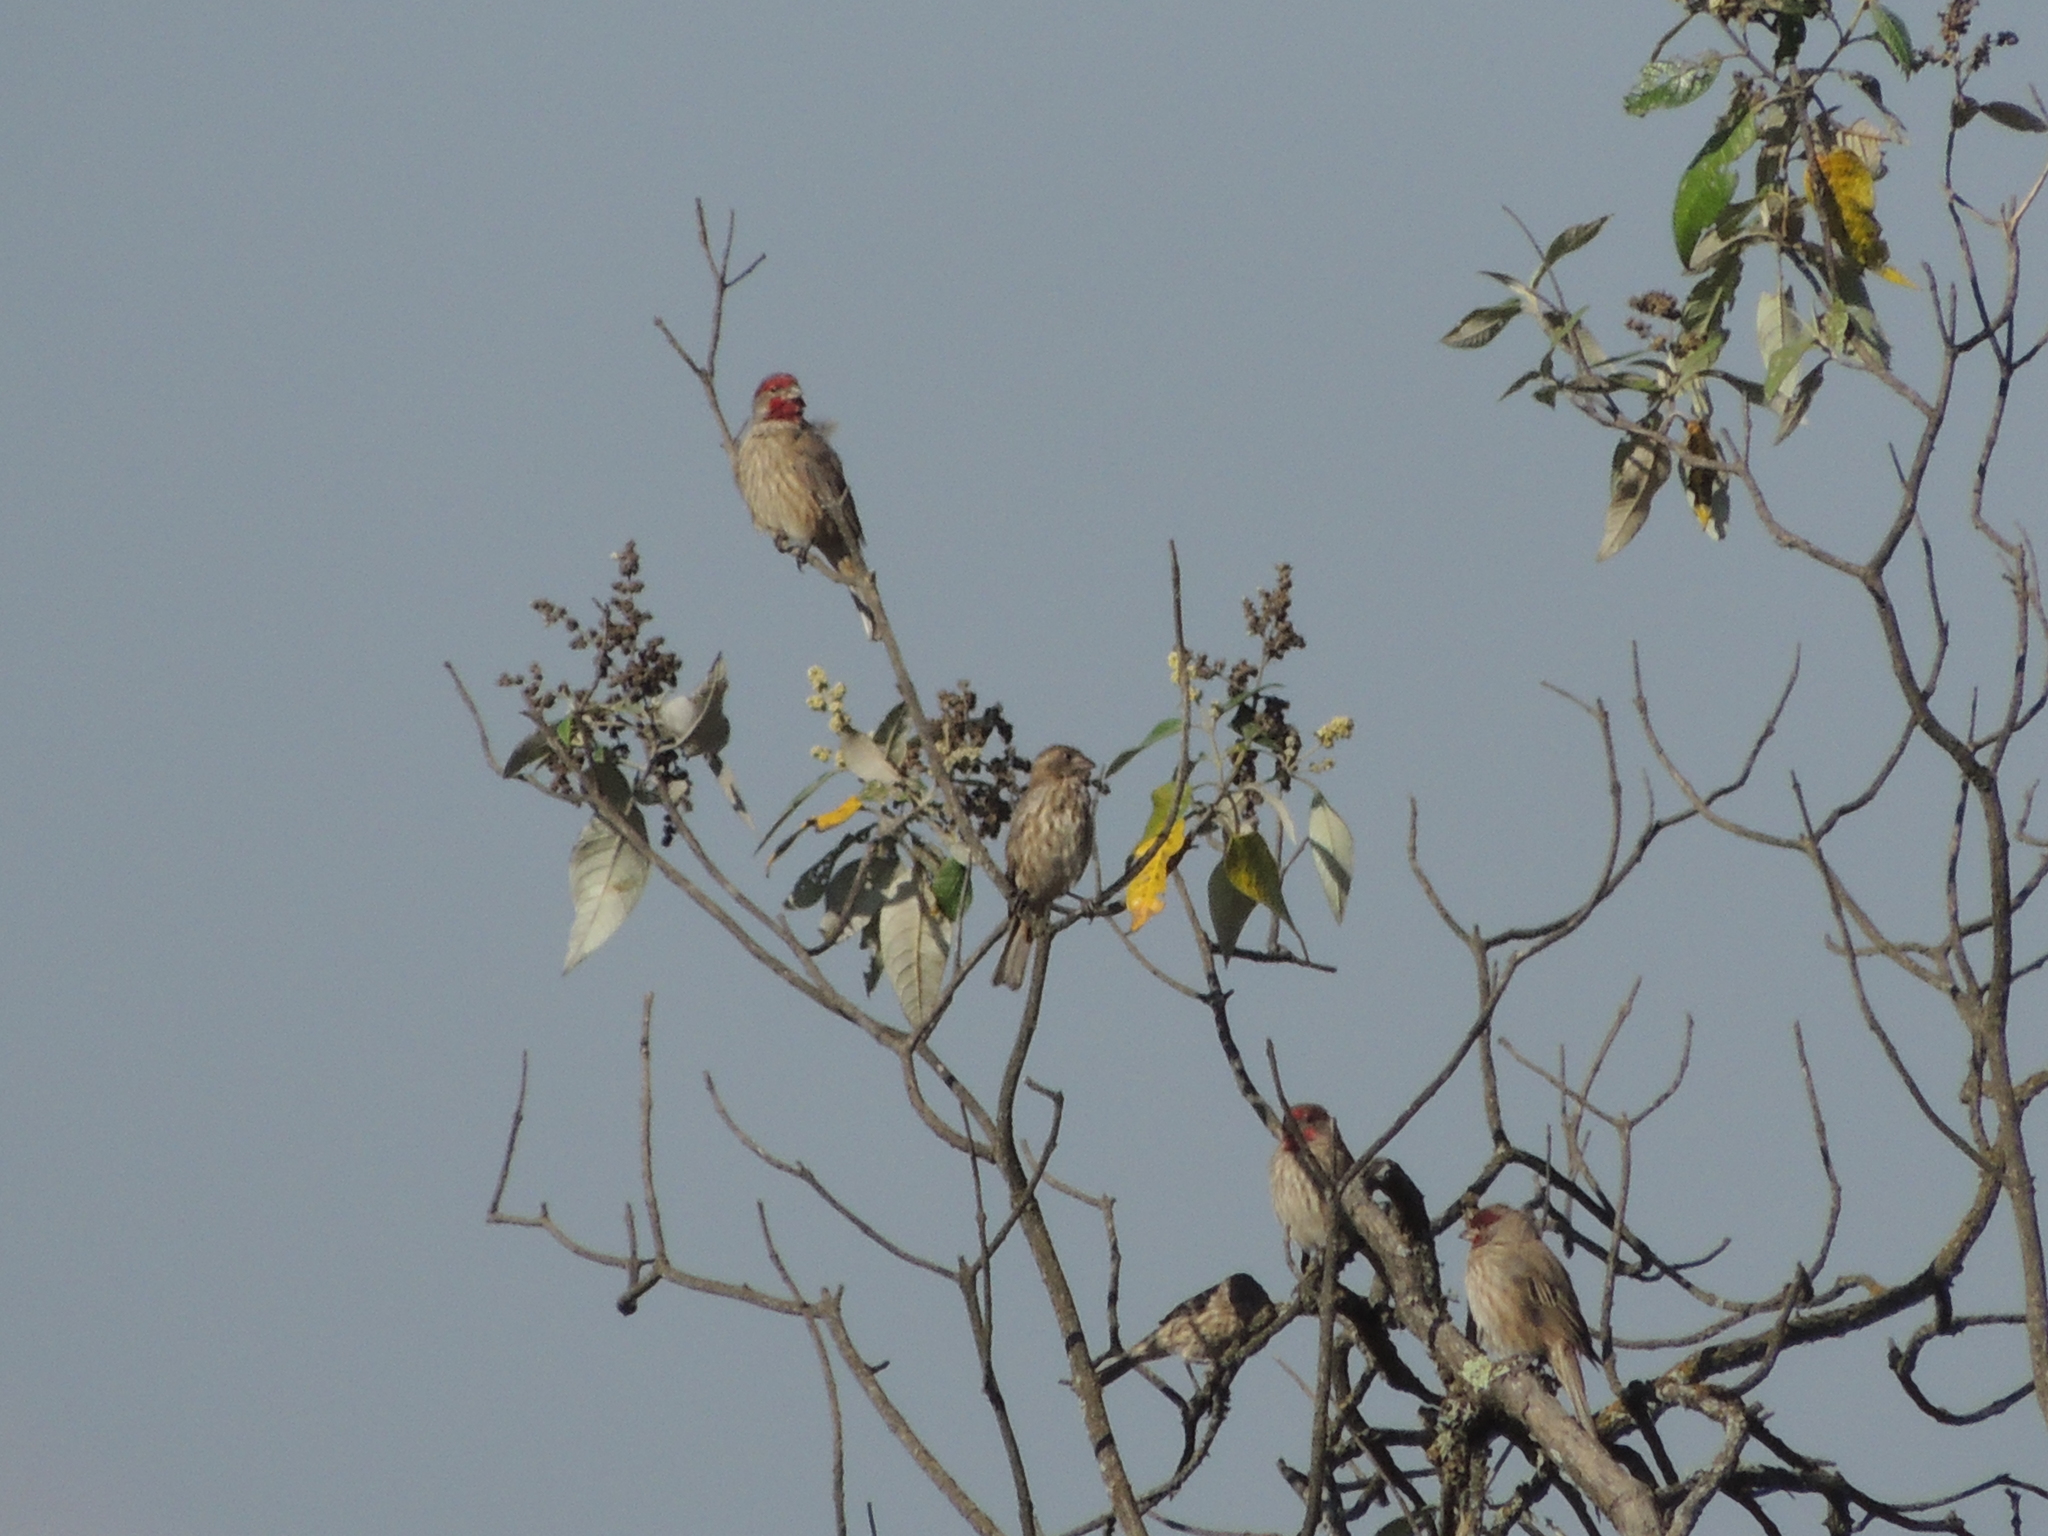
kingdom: Animalia
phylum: Chordata
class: Aves
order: Passeriformes
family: Fringillidae
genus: Haemorhous
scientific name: Haemorhous mexicanus
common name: House finch
